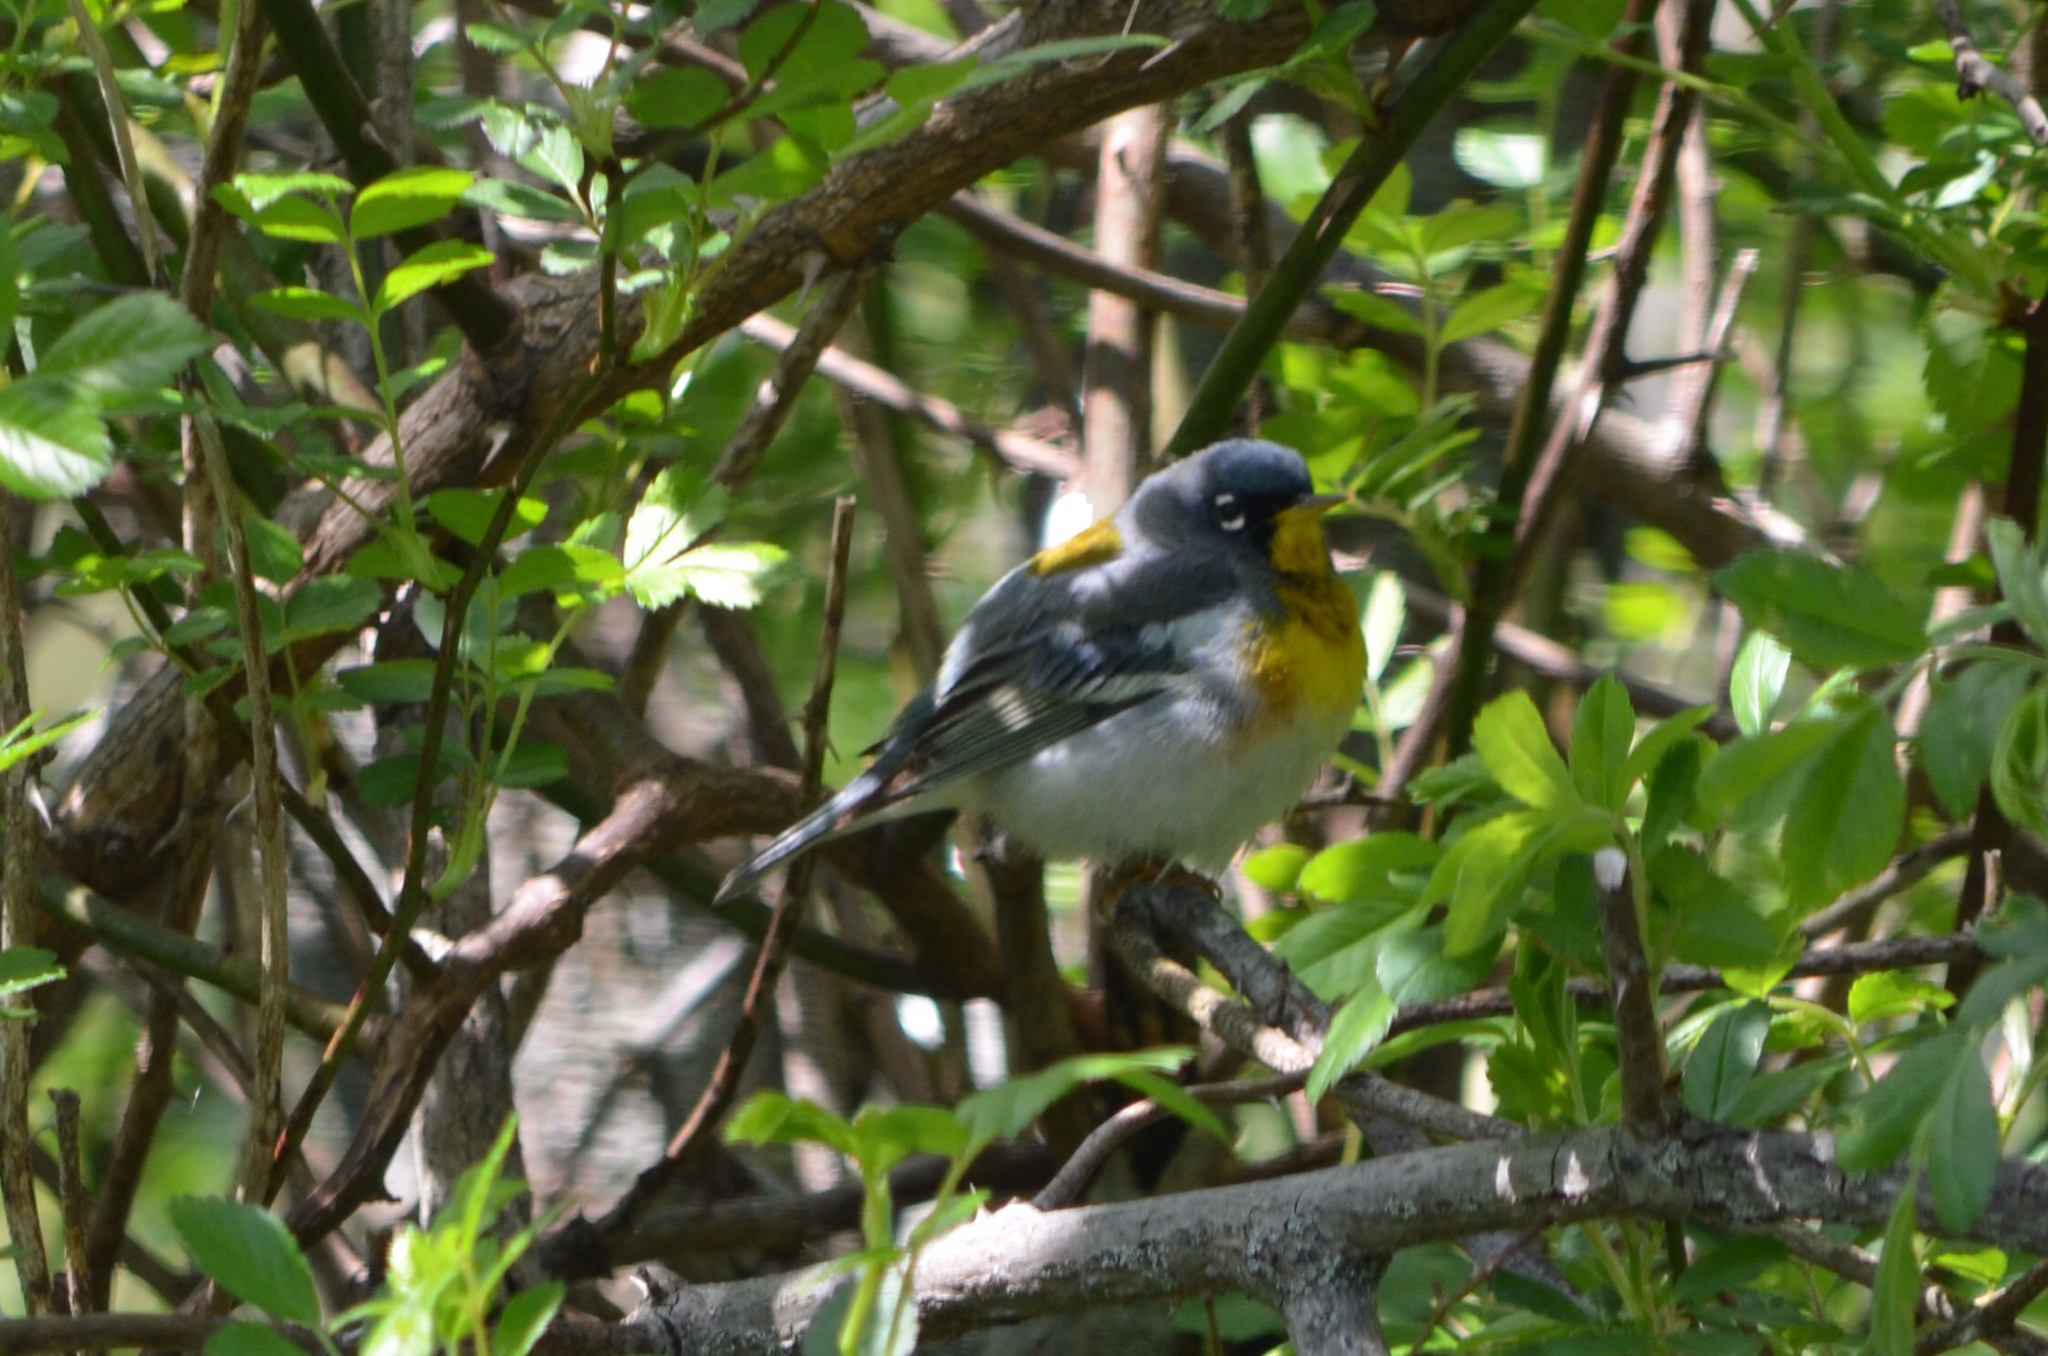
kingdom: Animalia
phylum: Chordata
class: Aves
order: Passeriformes
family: Parulidae
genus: Setophaga
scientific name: Setophaga americana
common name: Northern parula
